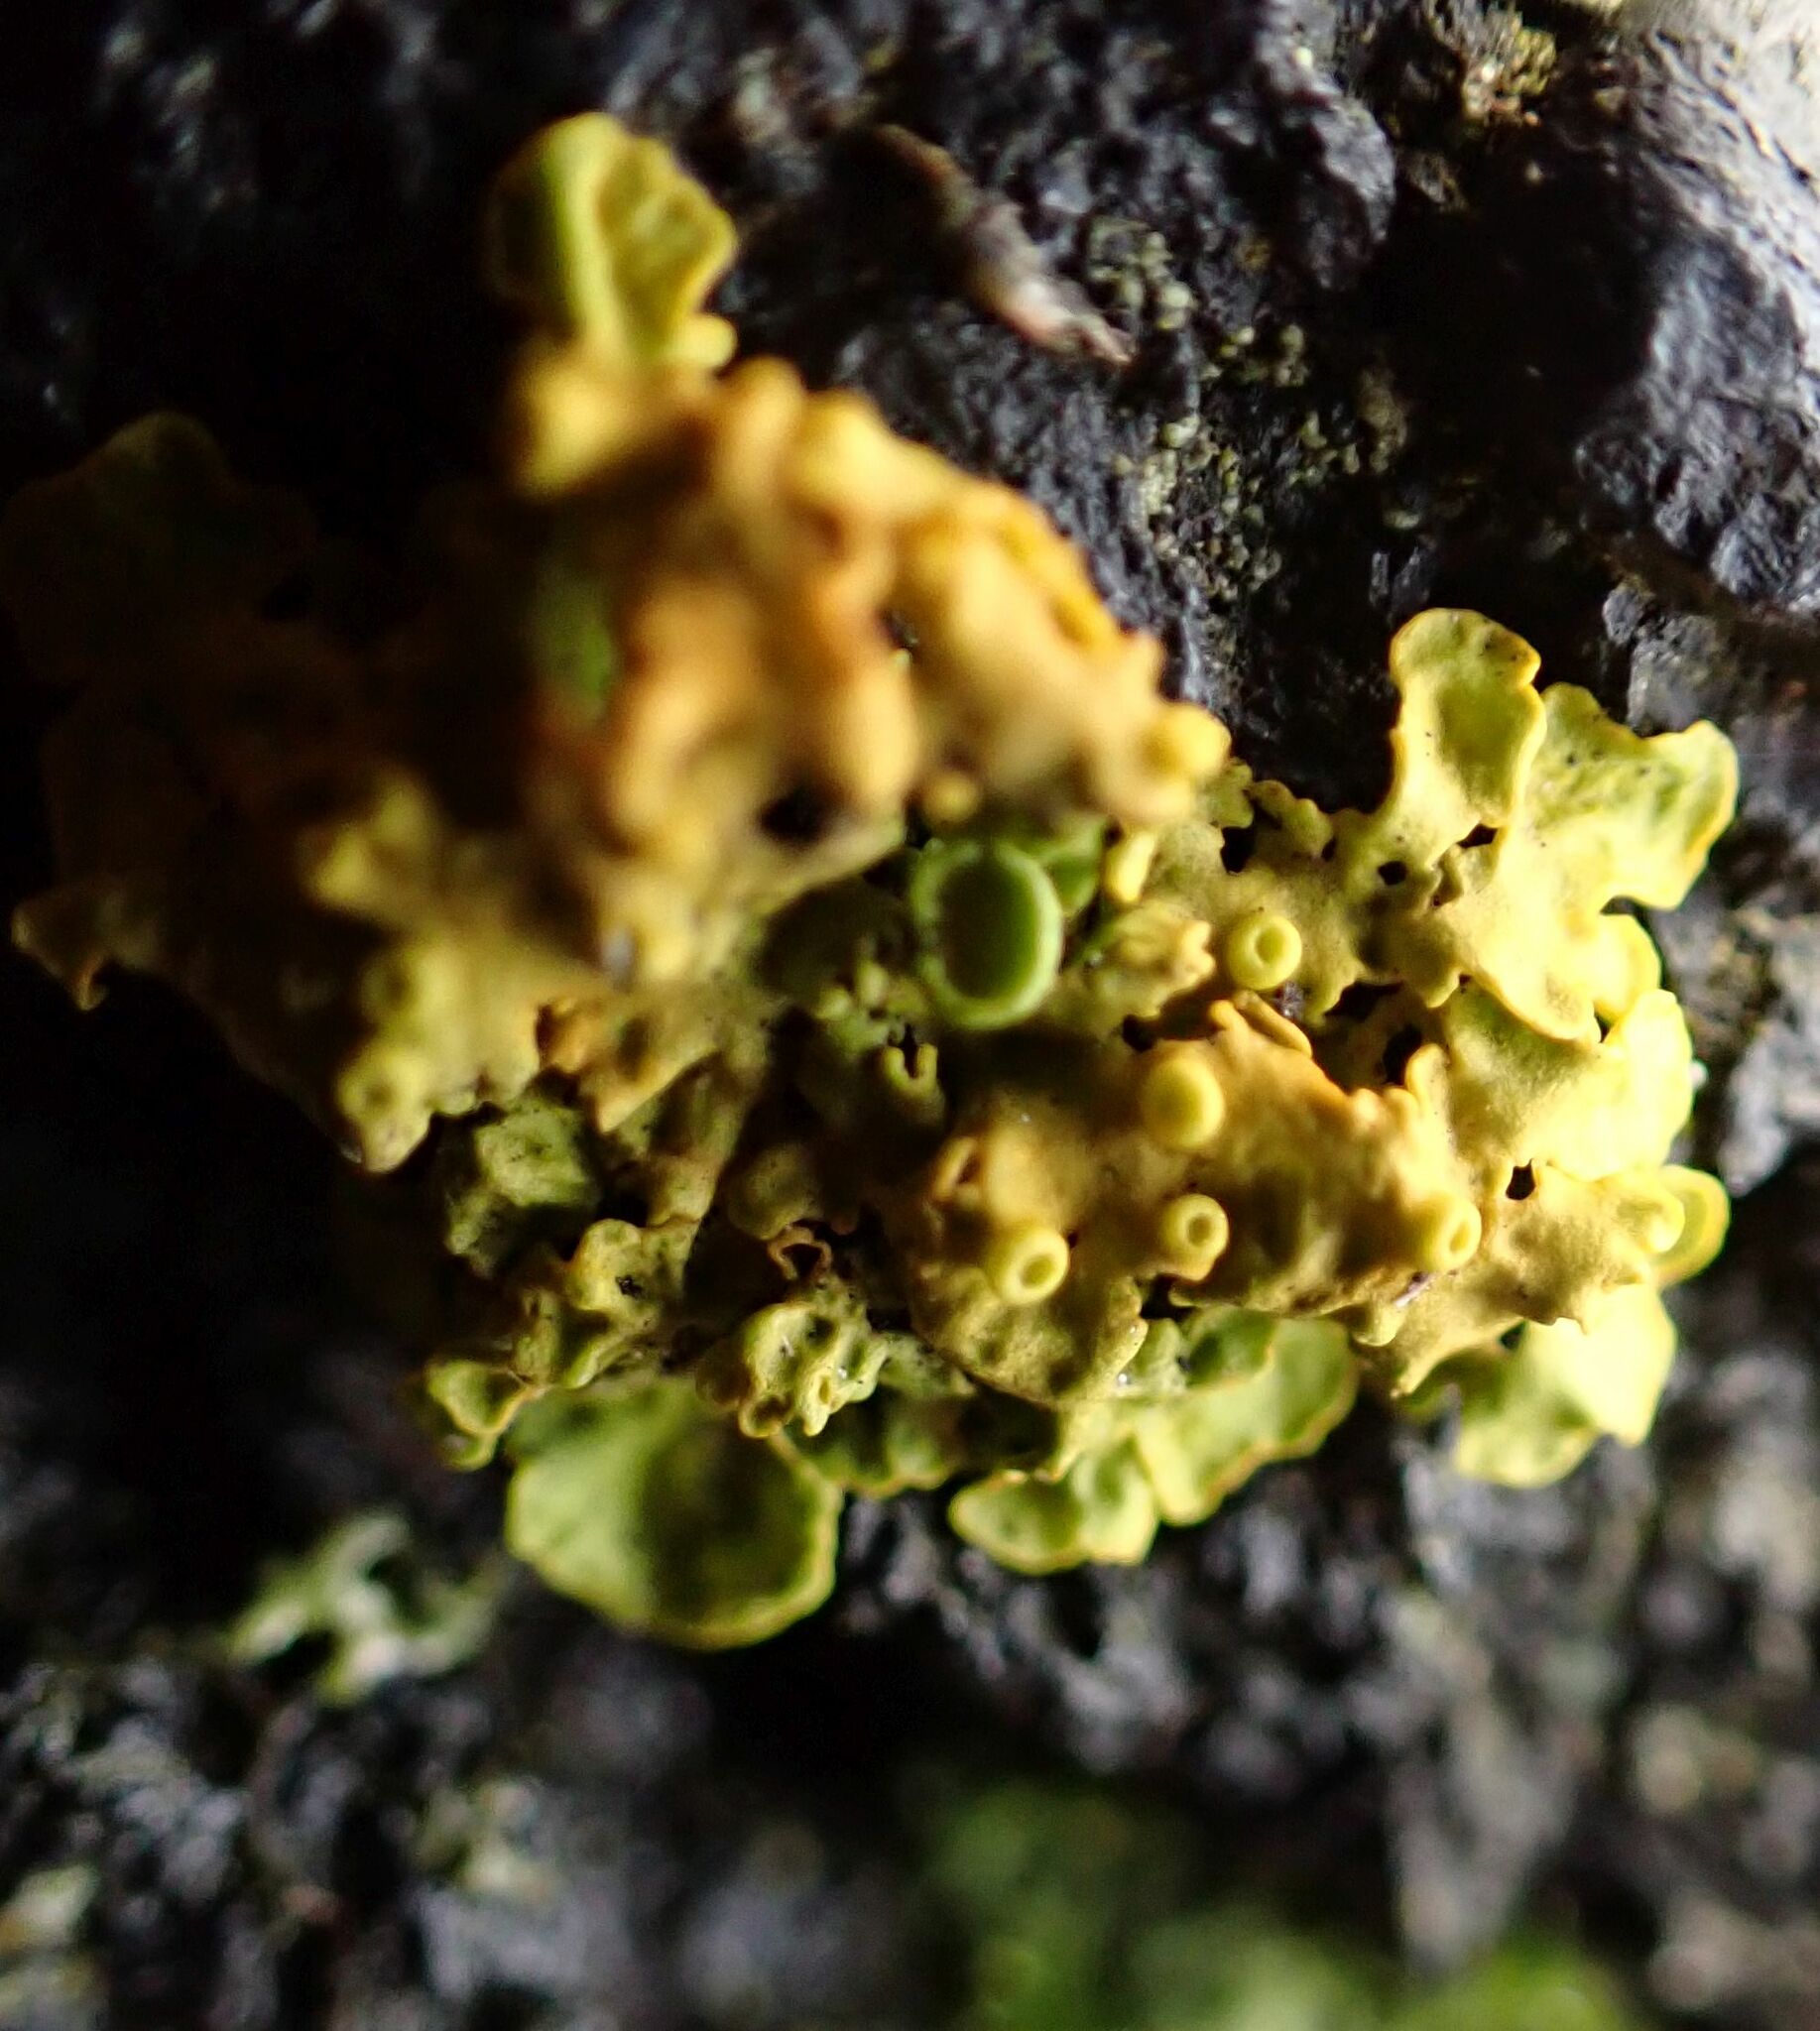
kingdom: Fungi
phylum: Ascomycota
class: Lecanoromycetes
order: Teloschistales
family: Teloschistaceae
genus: Xanthoria
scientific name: Xanthoria parietina
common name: Common orange lichen
